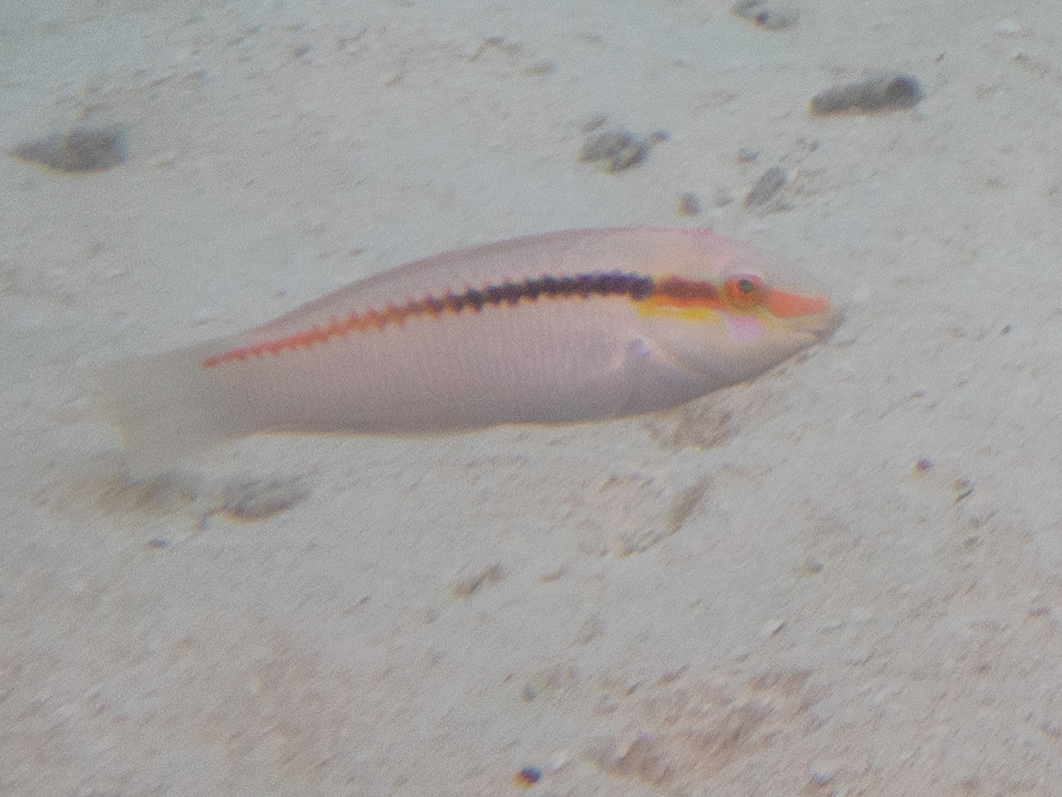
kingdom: Animalia
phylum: Chordata
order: Perciformes
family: Labridae
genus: Halichoeres
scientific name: Halichoeres scapularis
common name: Brownbanded wrasse
